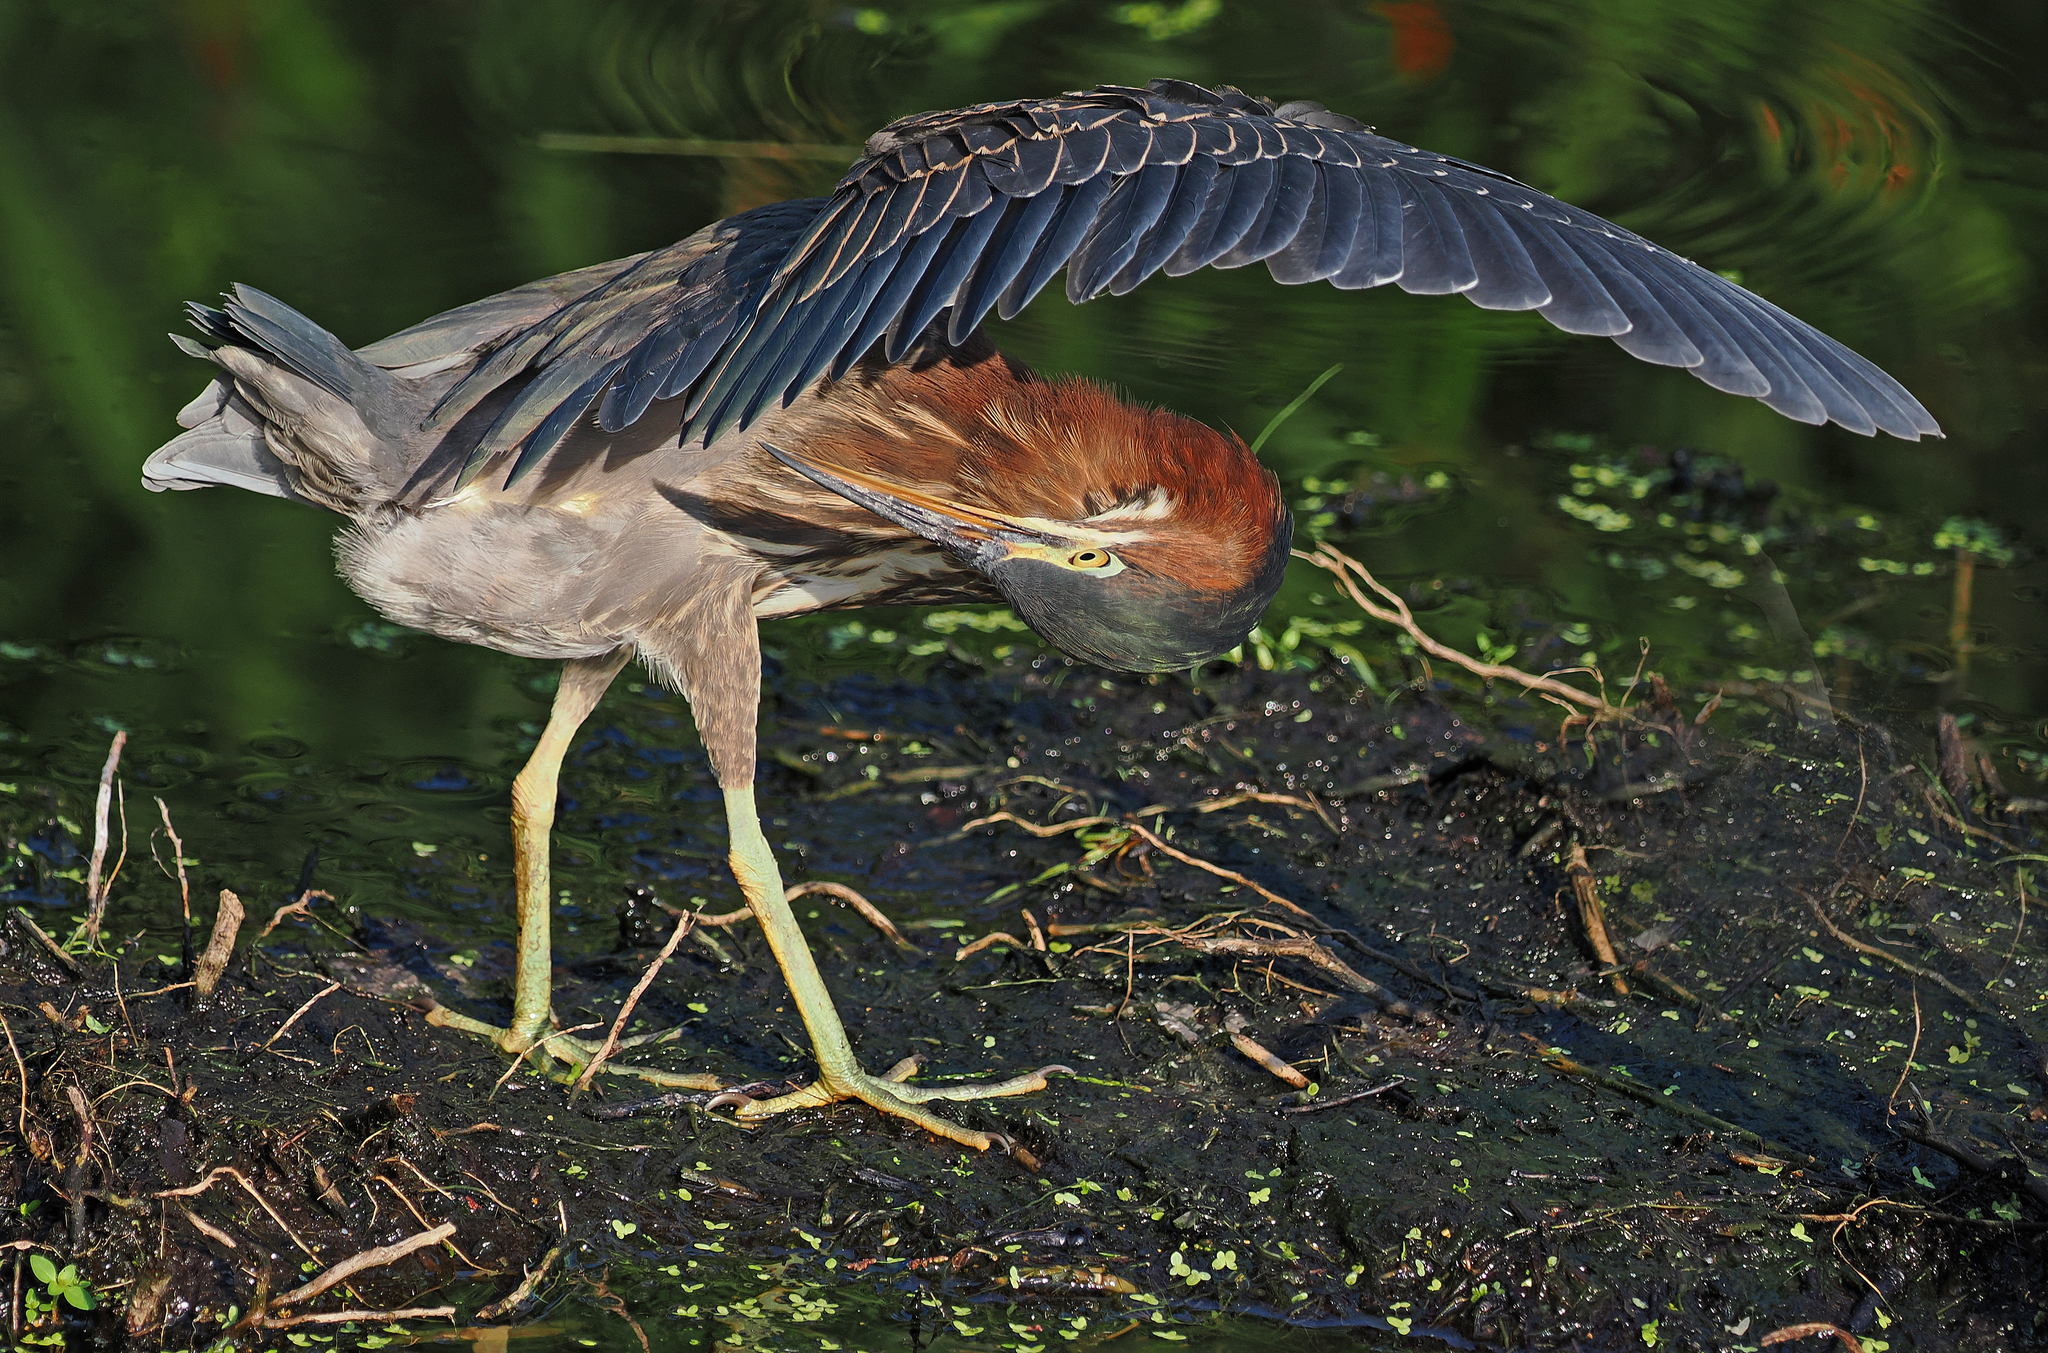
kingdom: Animalia
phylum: Chordata
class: Aves
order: Pelecaniformes
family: Ardeidae
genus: Butorides
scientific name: Butorides virescens
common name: Green heron
